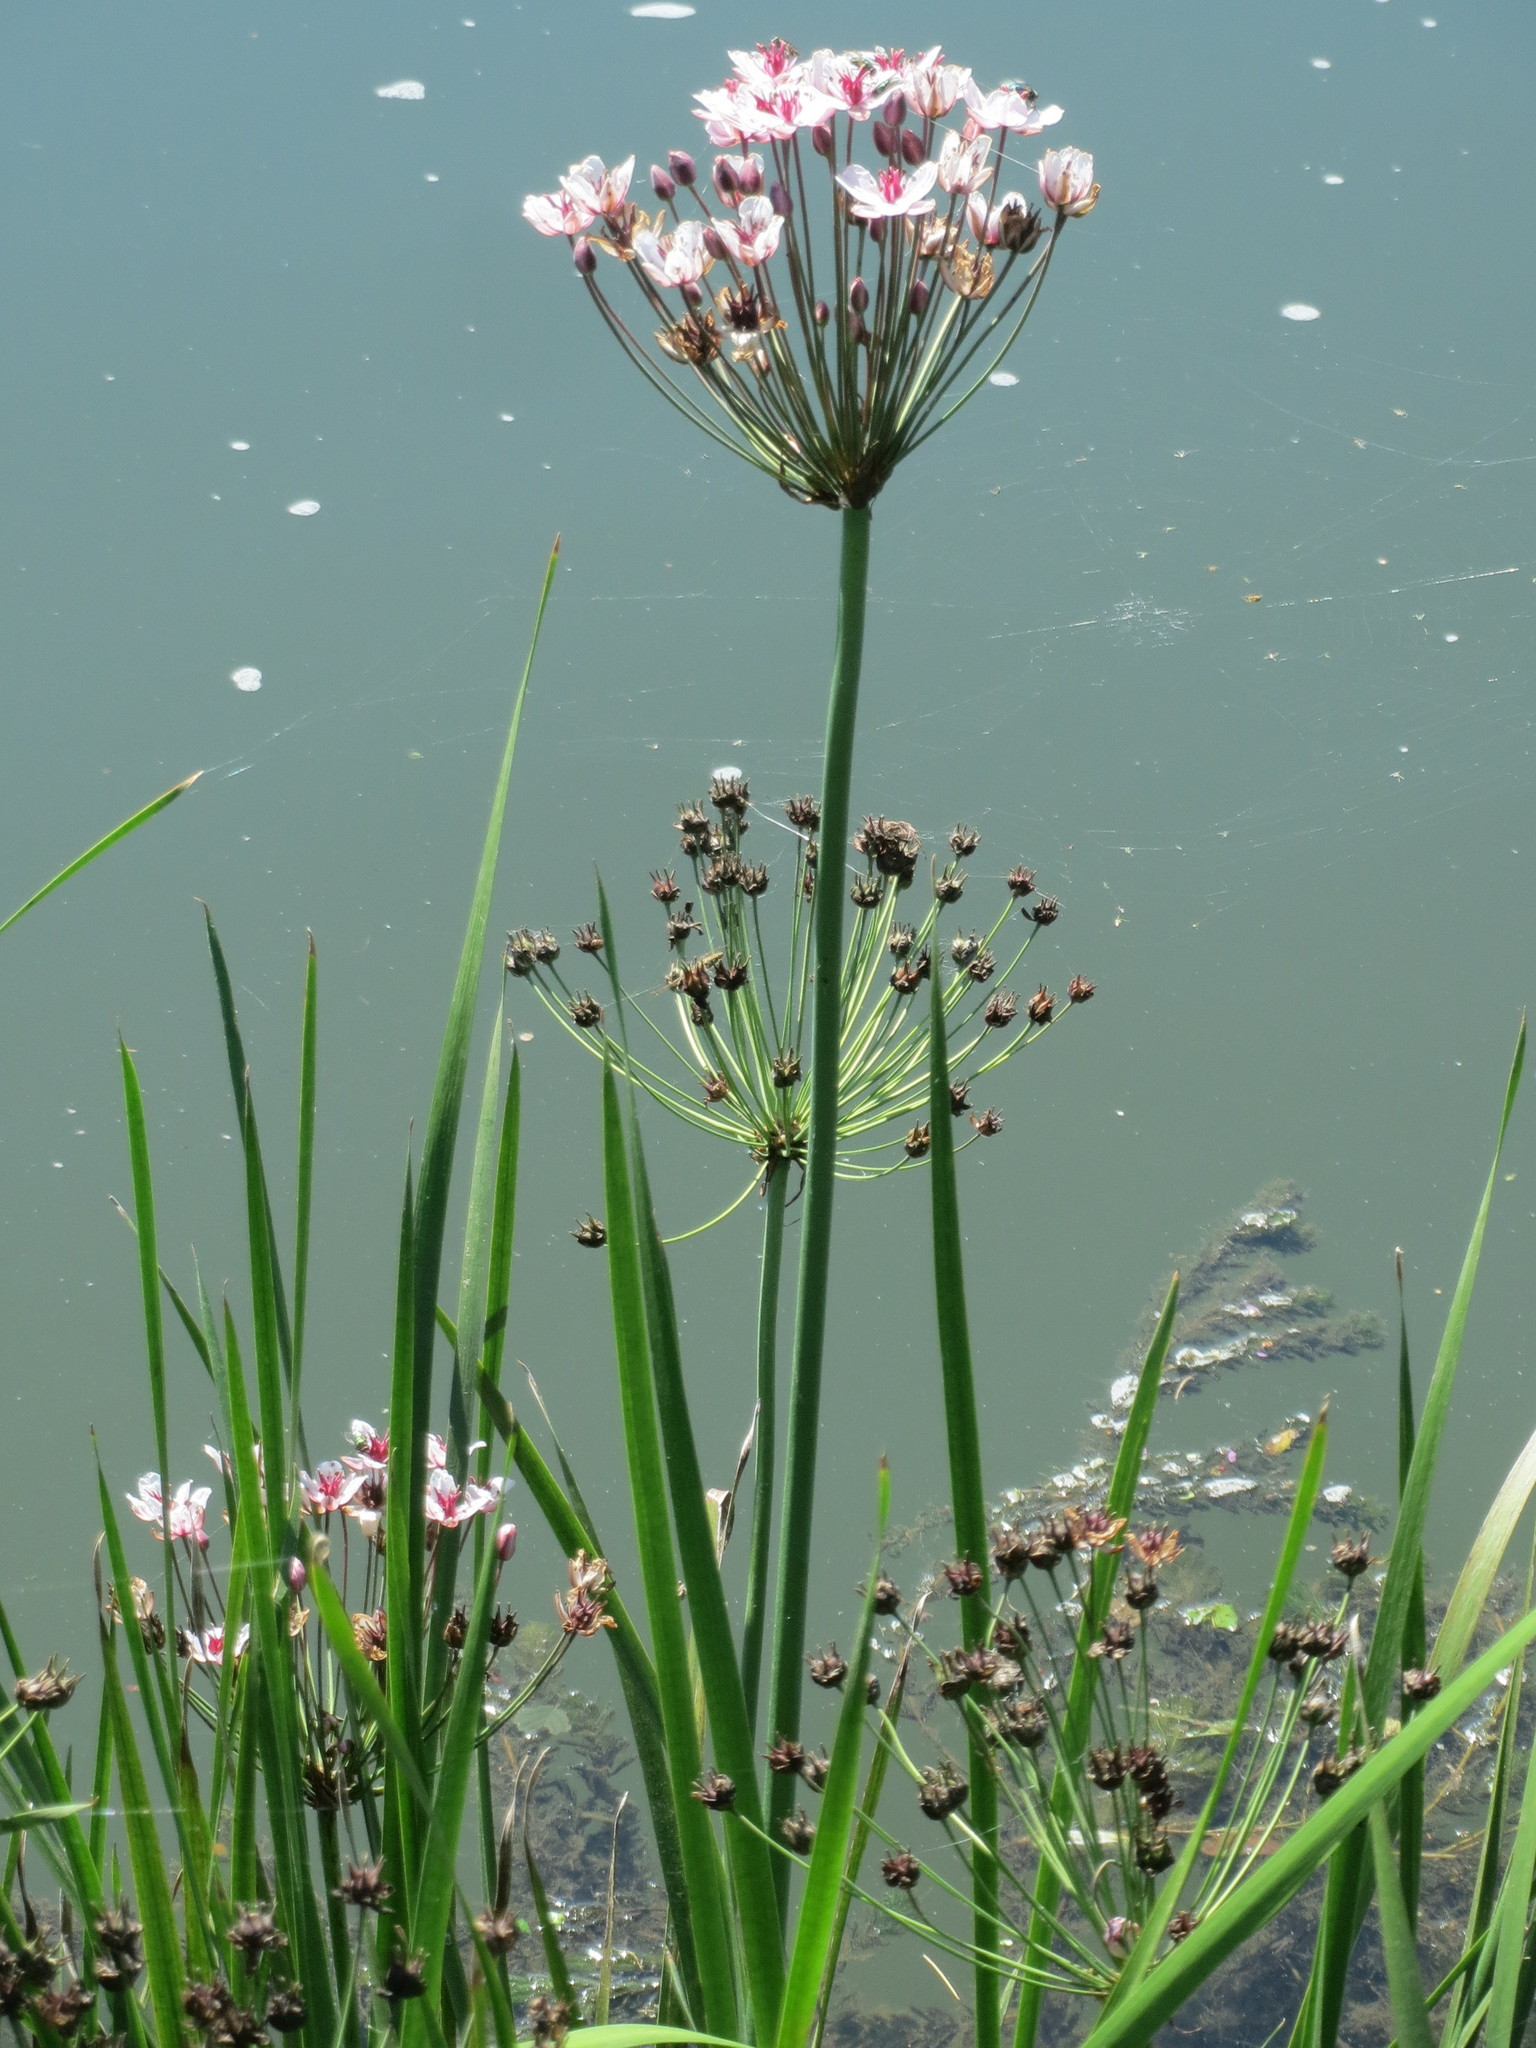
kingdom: Plantae
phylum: Tracheophyta
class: Liliopsida
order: Alismatales
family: Butomaceae
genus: Butomus
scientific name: Butomus umbellatus
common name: Flowering-rush
